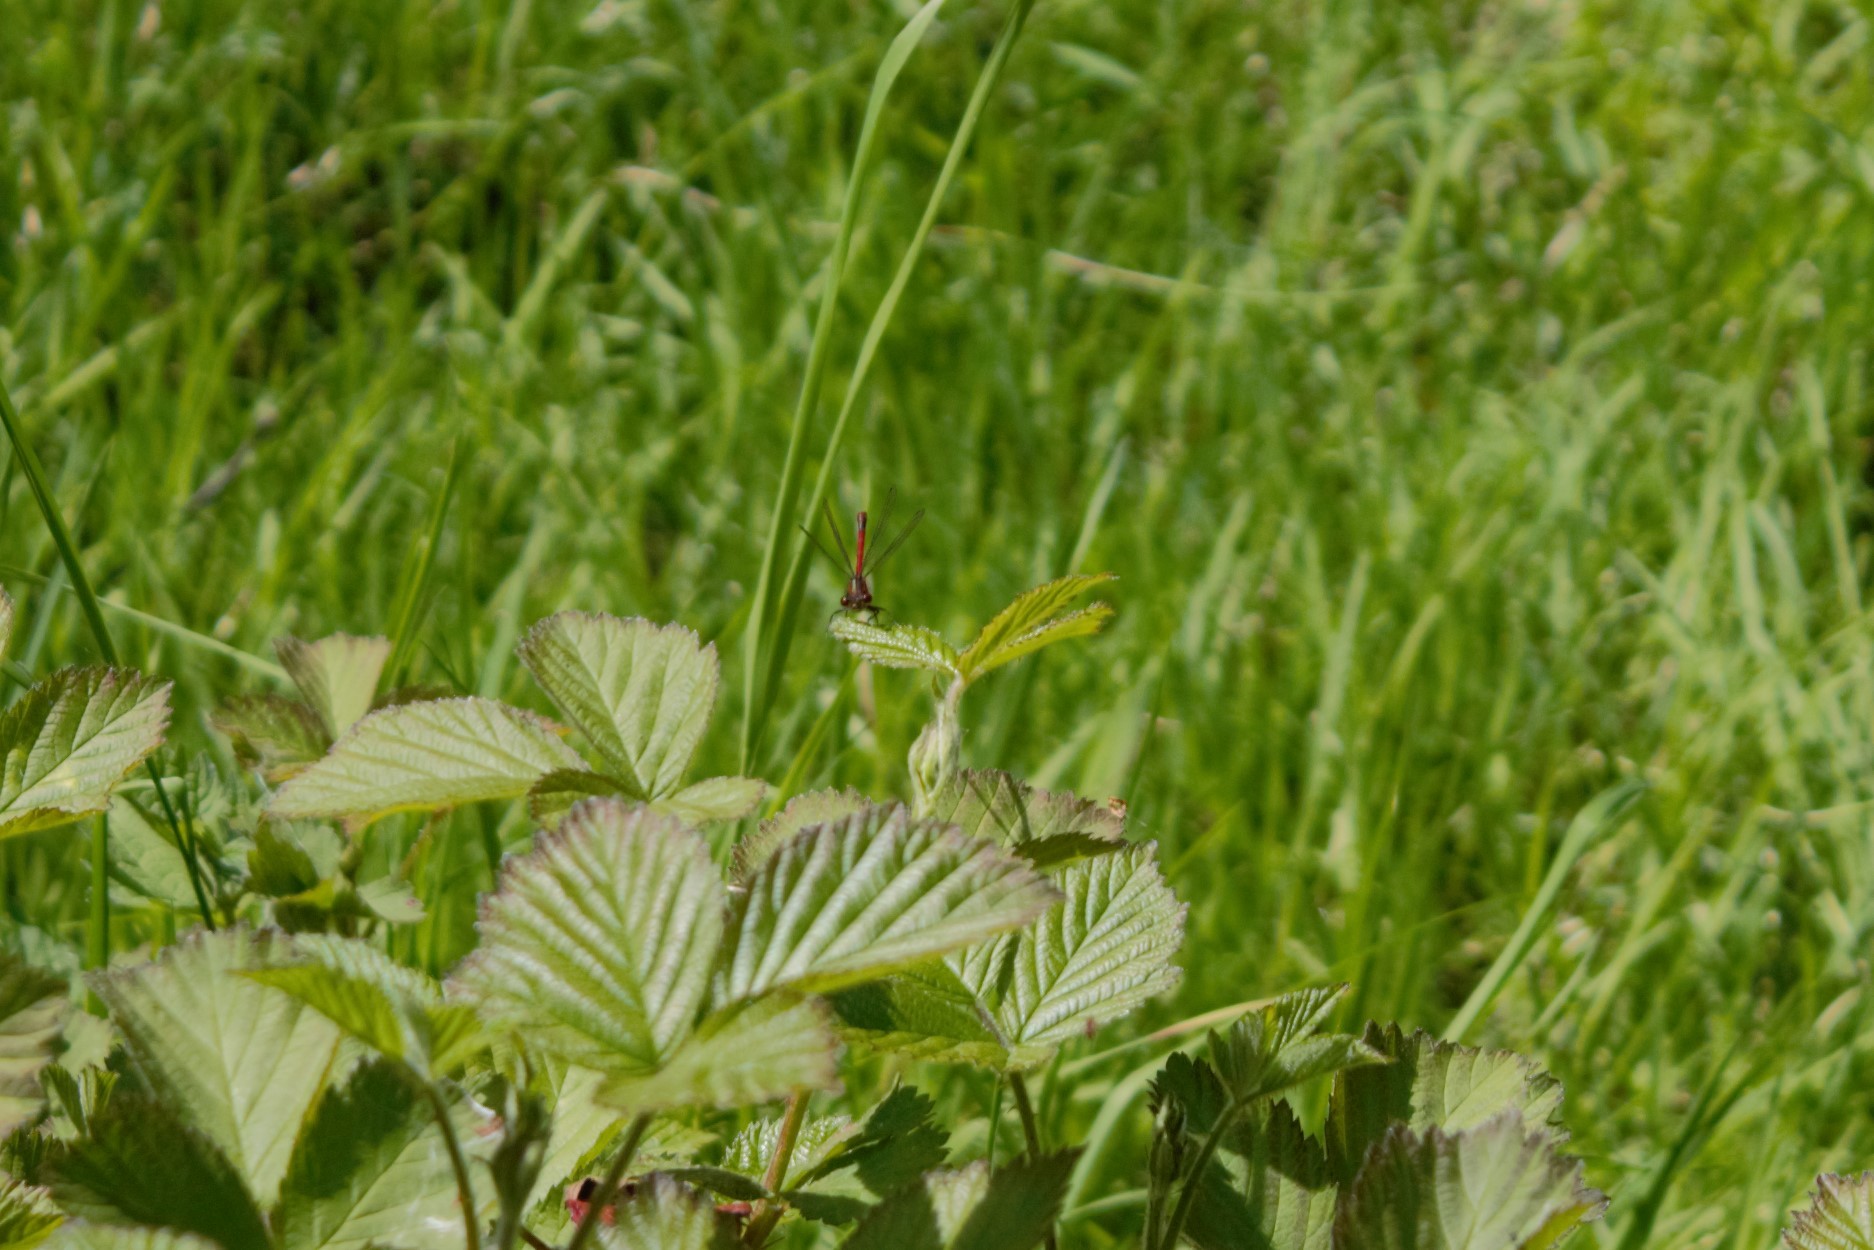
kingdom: Animalia
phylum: Arthropoda
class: Insecta
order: Odonata
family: Coenagrionidae
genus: Pyrrhosoma
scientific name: Pyrrhosoma nymphula
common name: Large red damsel
